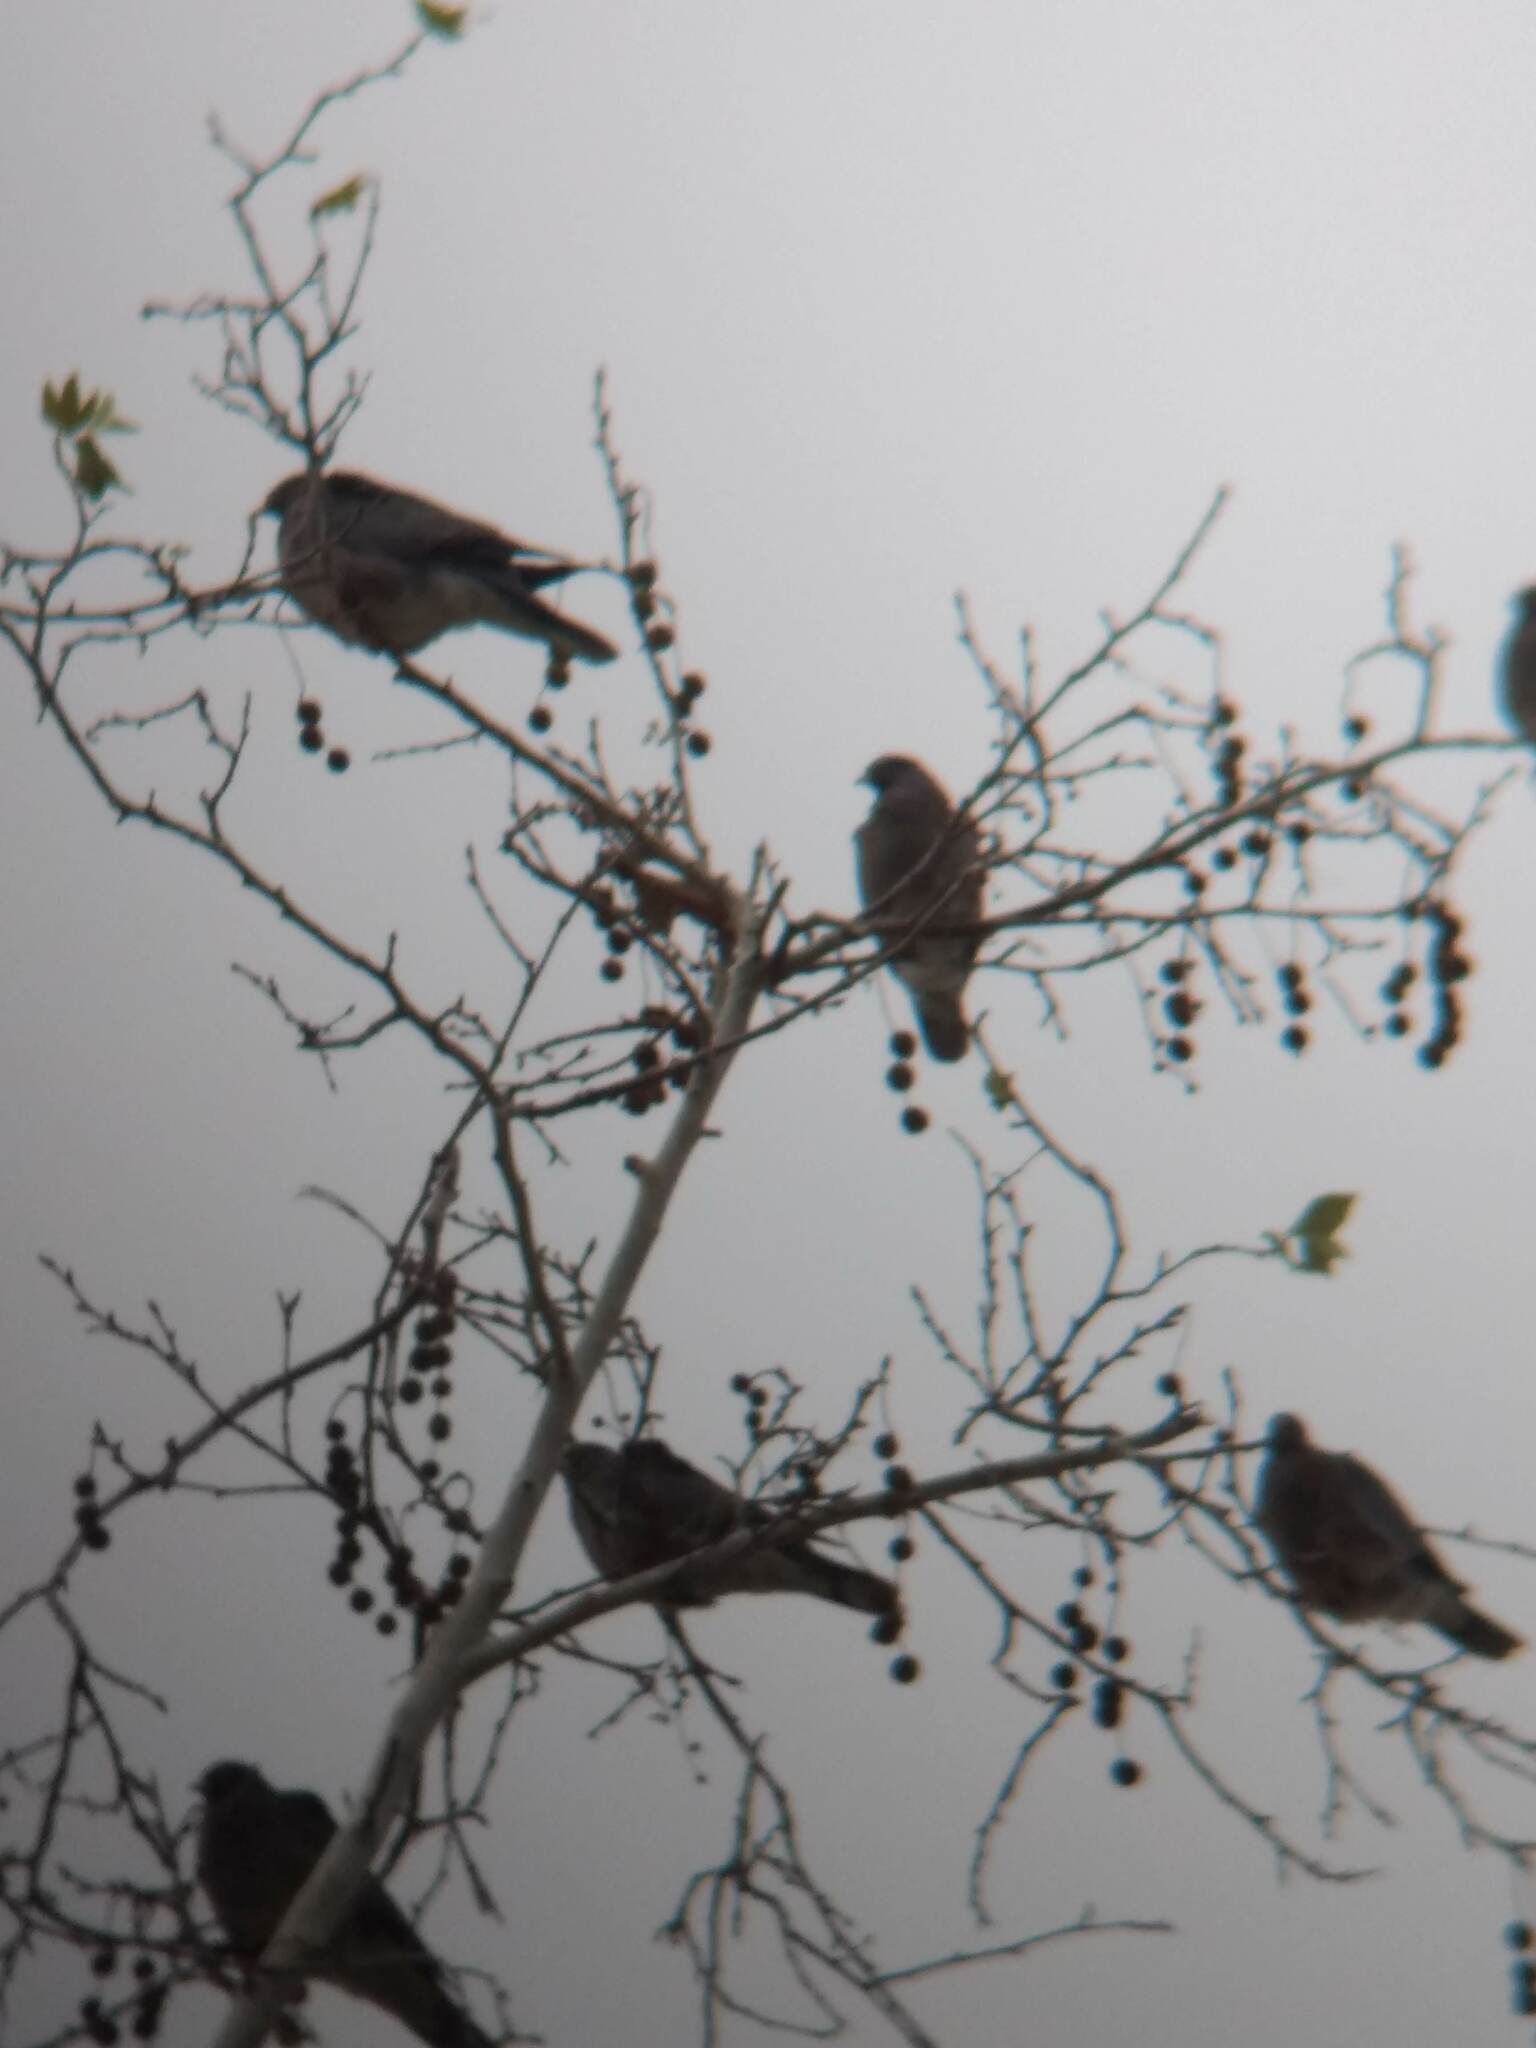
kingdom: Animalia
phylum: Chordata
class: Aves
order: Columbiformes
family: Columbidae
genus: Patagioenas
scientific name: Patagioenas fasciata
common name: Band-tailed pigeon
